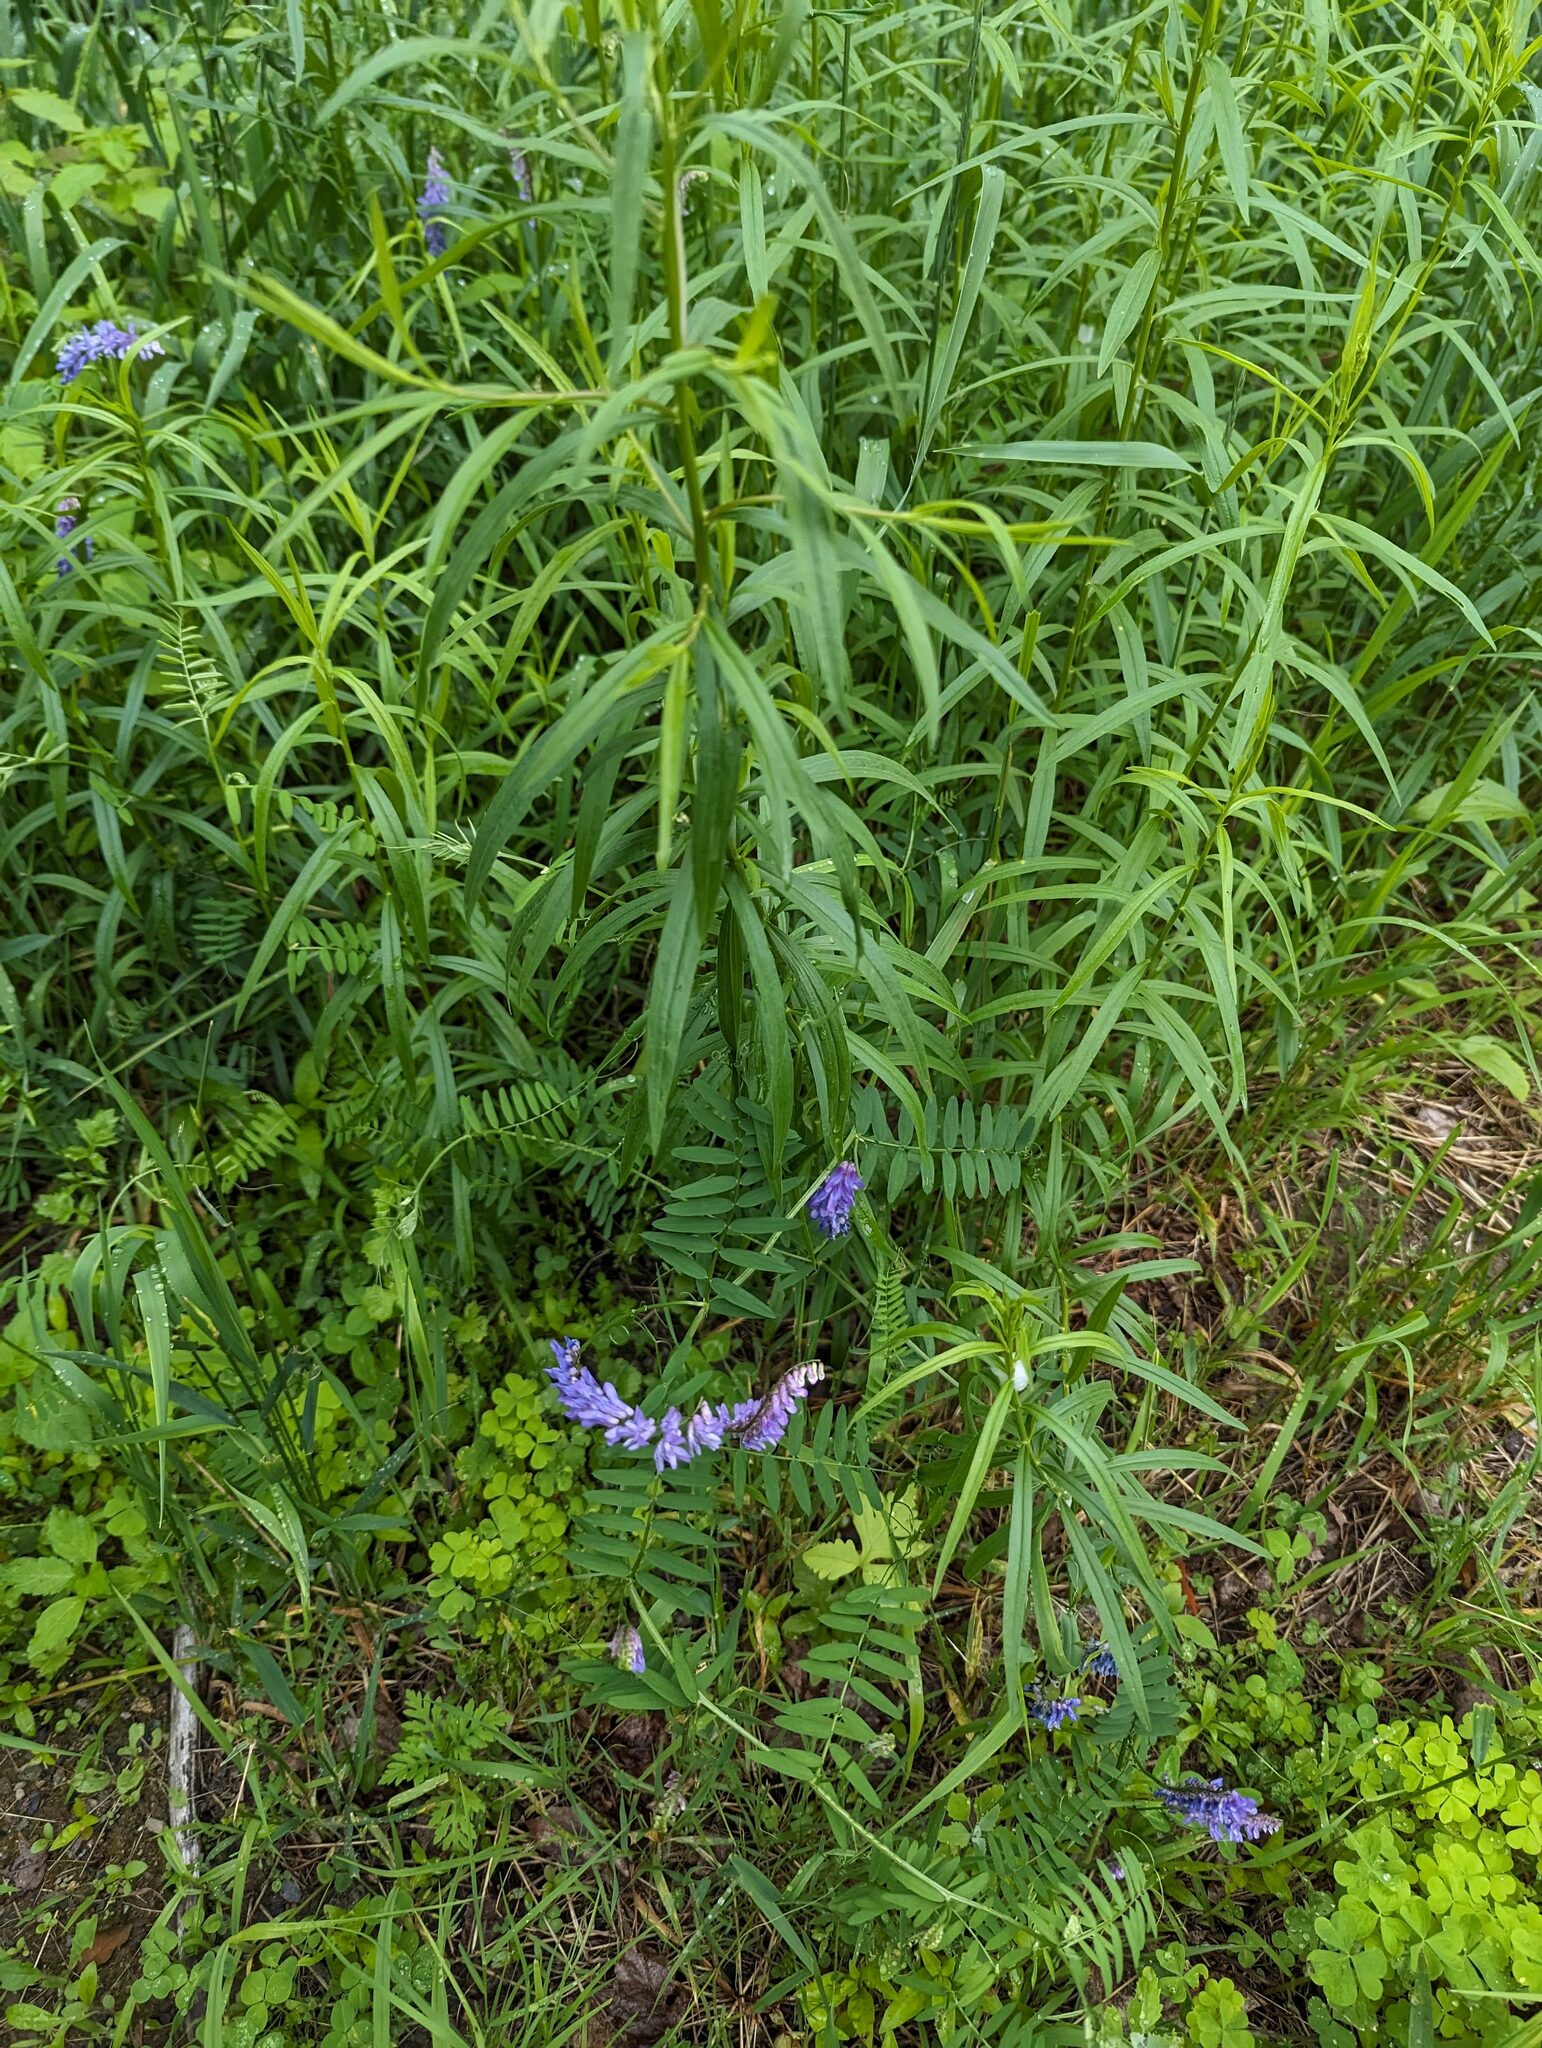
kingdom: Plantae
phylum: Tracheophyta
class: Magnoliopsida
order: Fabales
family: Fabaceae
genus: Vicia
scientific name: Vicia cracca
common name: Bird vetch
